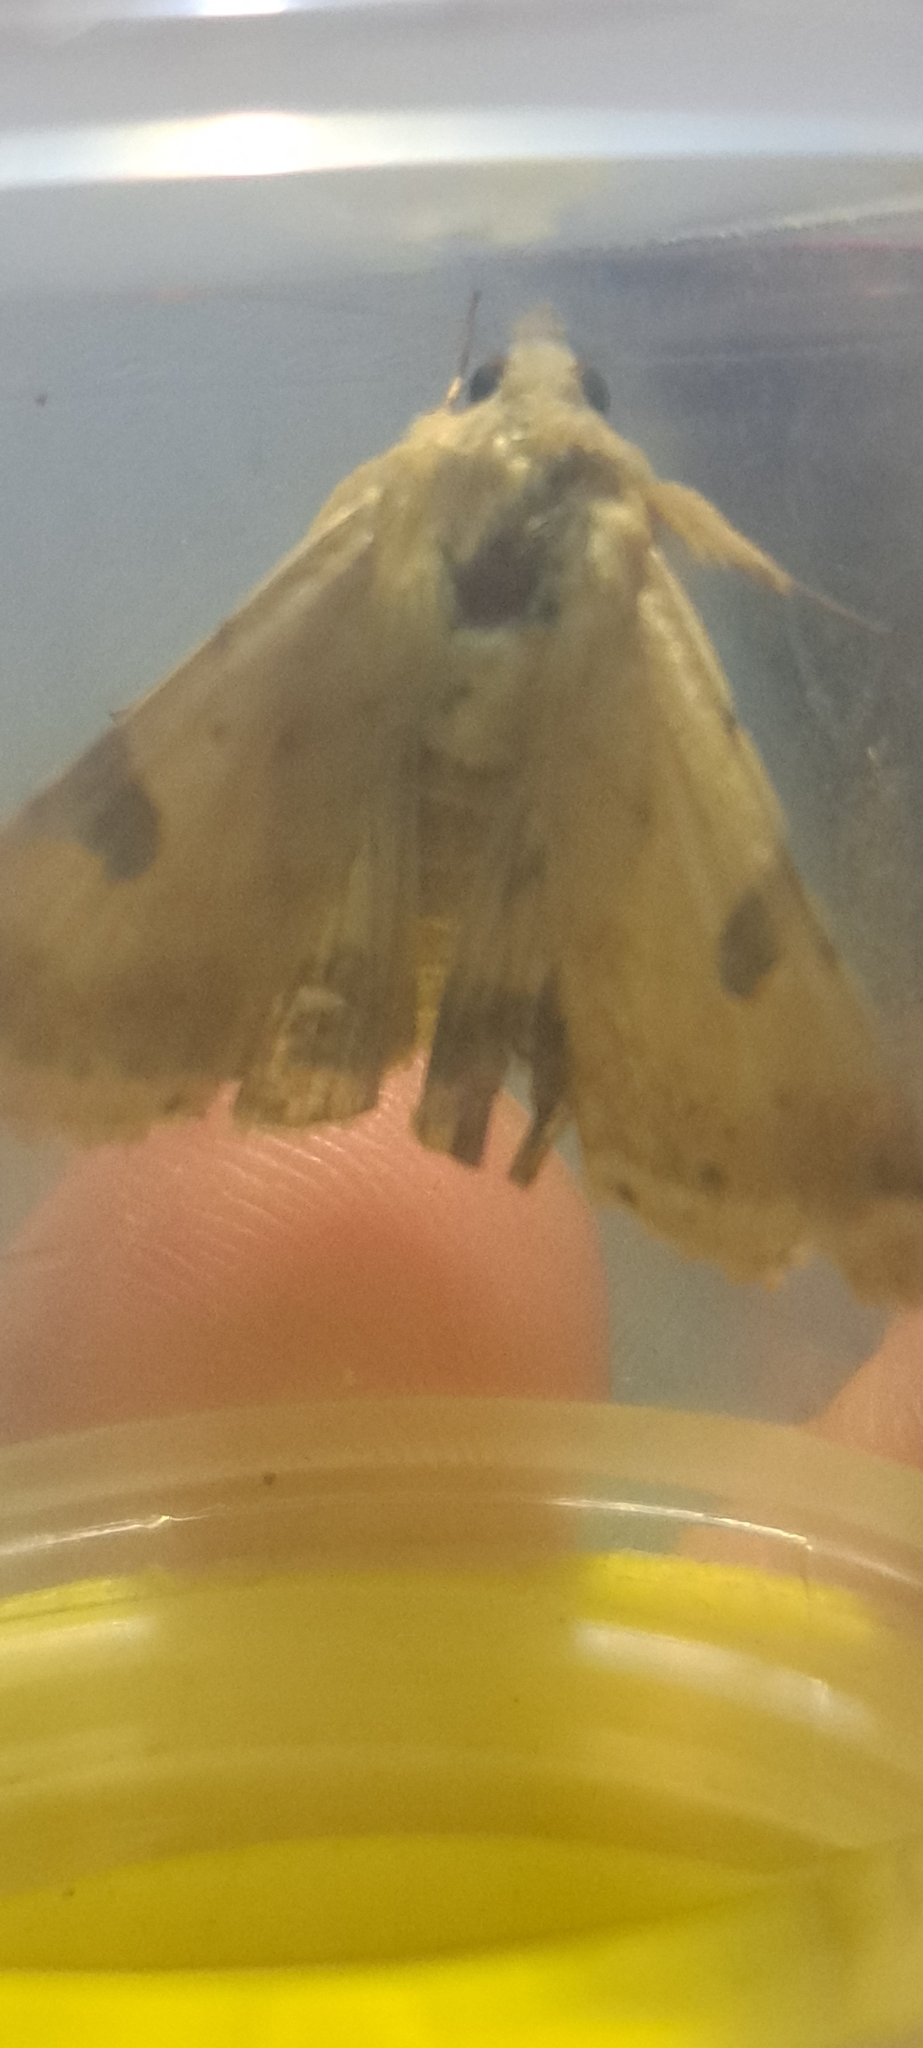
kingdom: Animalia
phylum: Arthropoda
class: Insecta
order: Lepidoptera
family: Noctuidae
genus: Heliothis
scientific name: Heliothis peltigera
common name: Bordered straw
